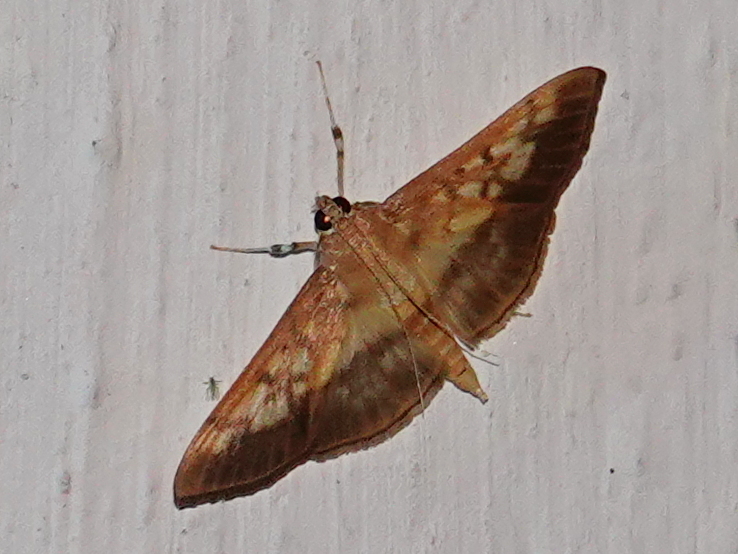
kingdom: Animalia
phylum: Arthropoda
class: Insecta
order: Lepidoptera
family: Crambidae
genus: Syllepte
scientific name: Syllepte sellalis
